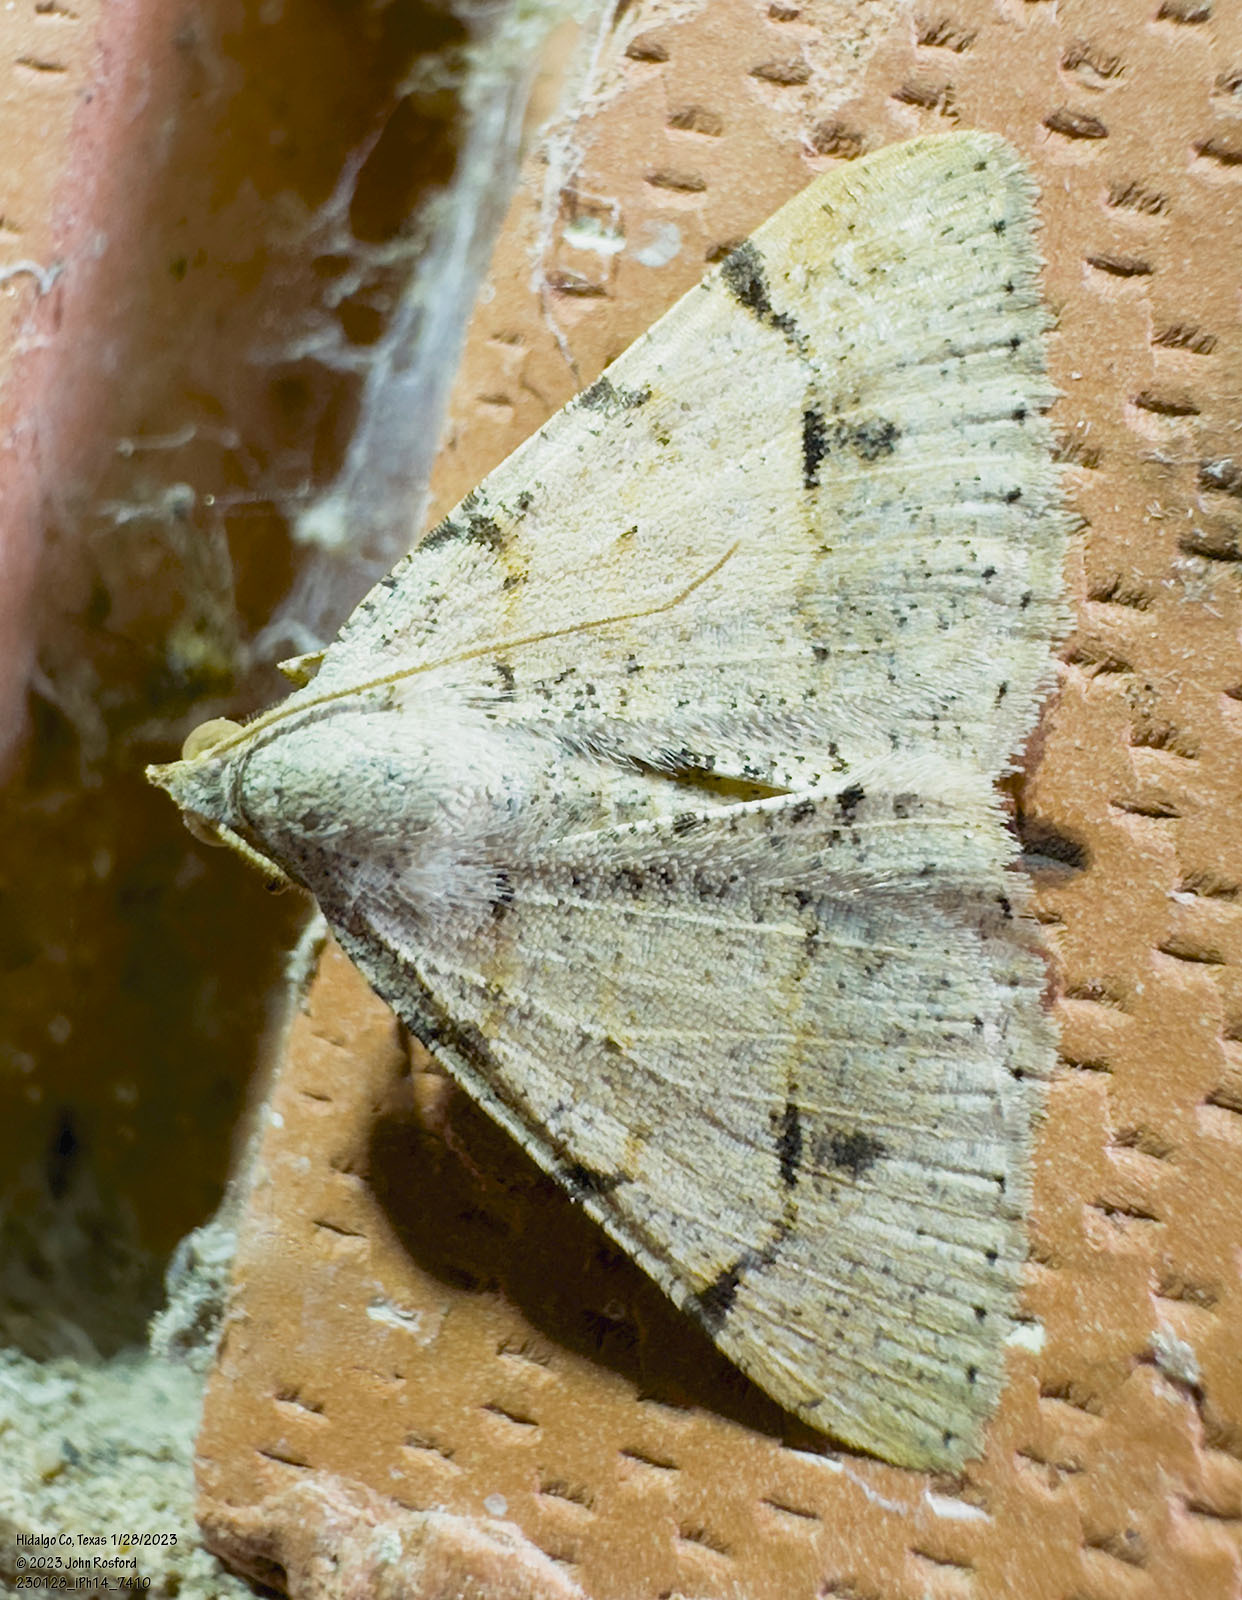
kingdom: Animalia
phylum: Arthropoda
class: Insecta
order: Lepidoptera
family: Geometridae
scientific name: Geometridae
